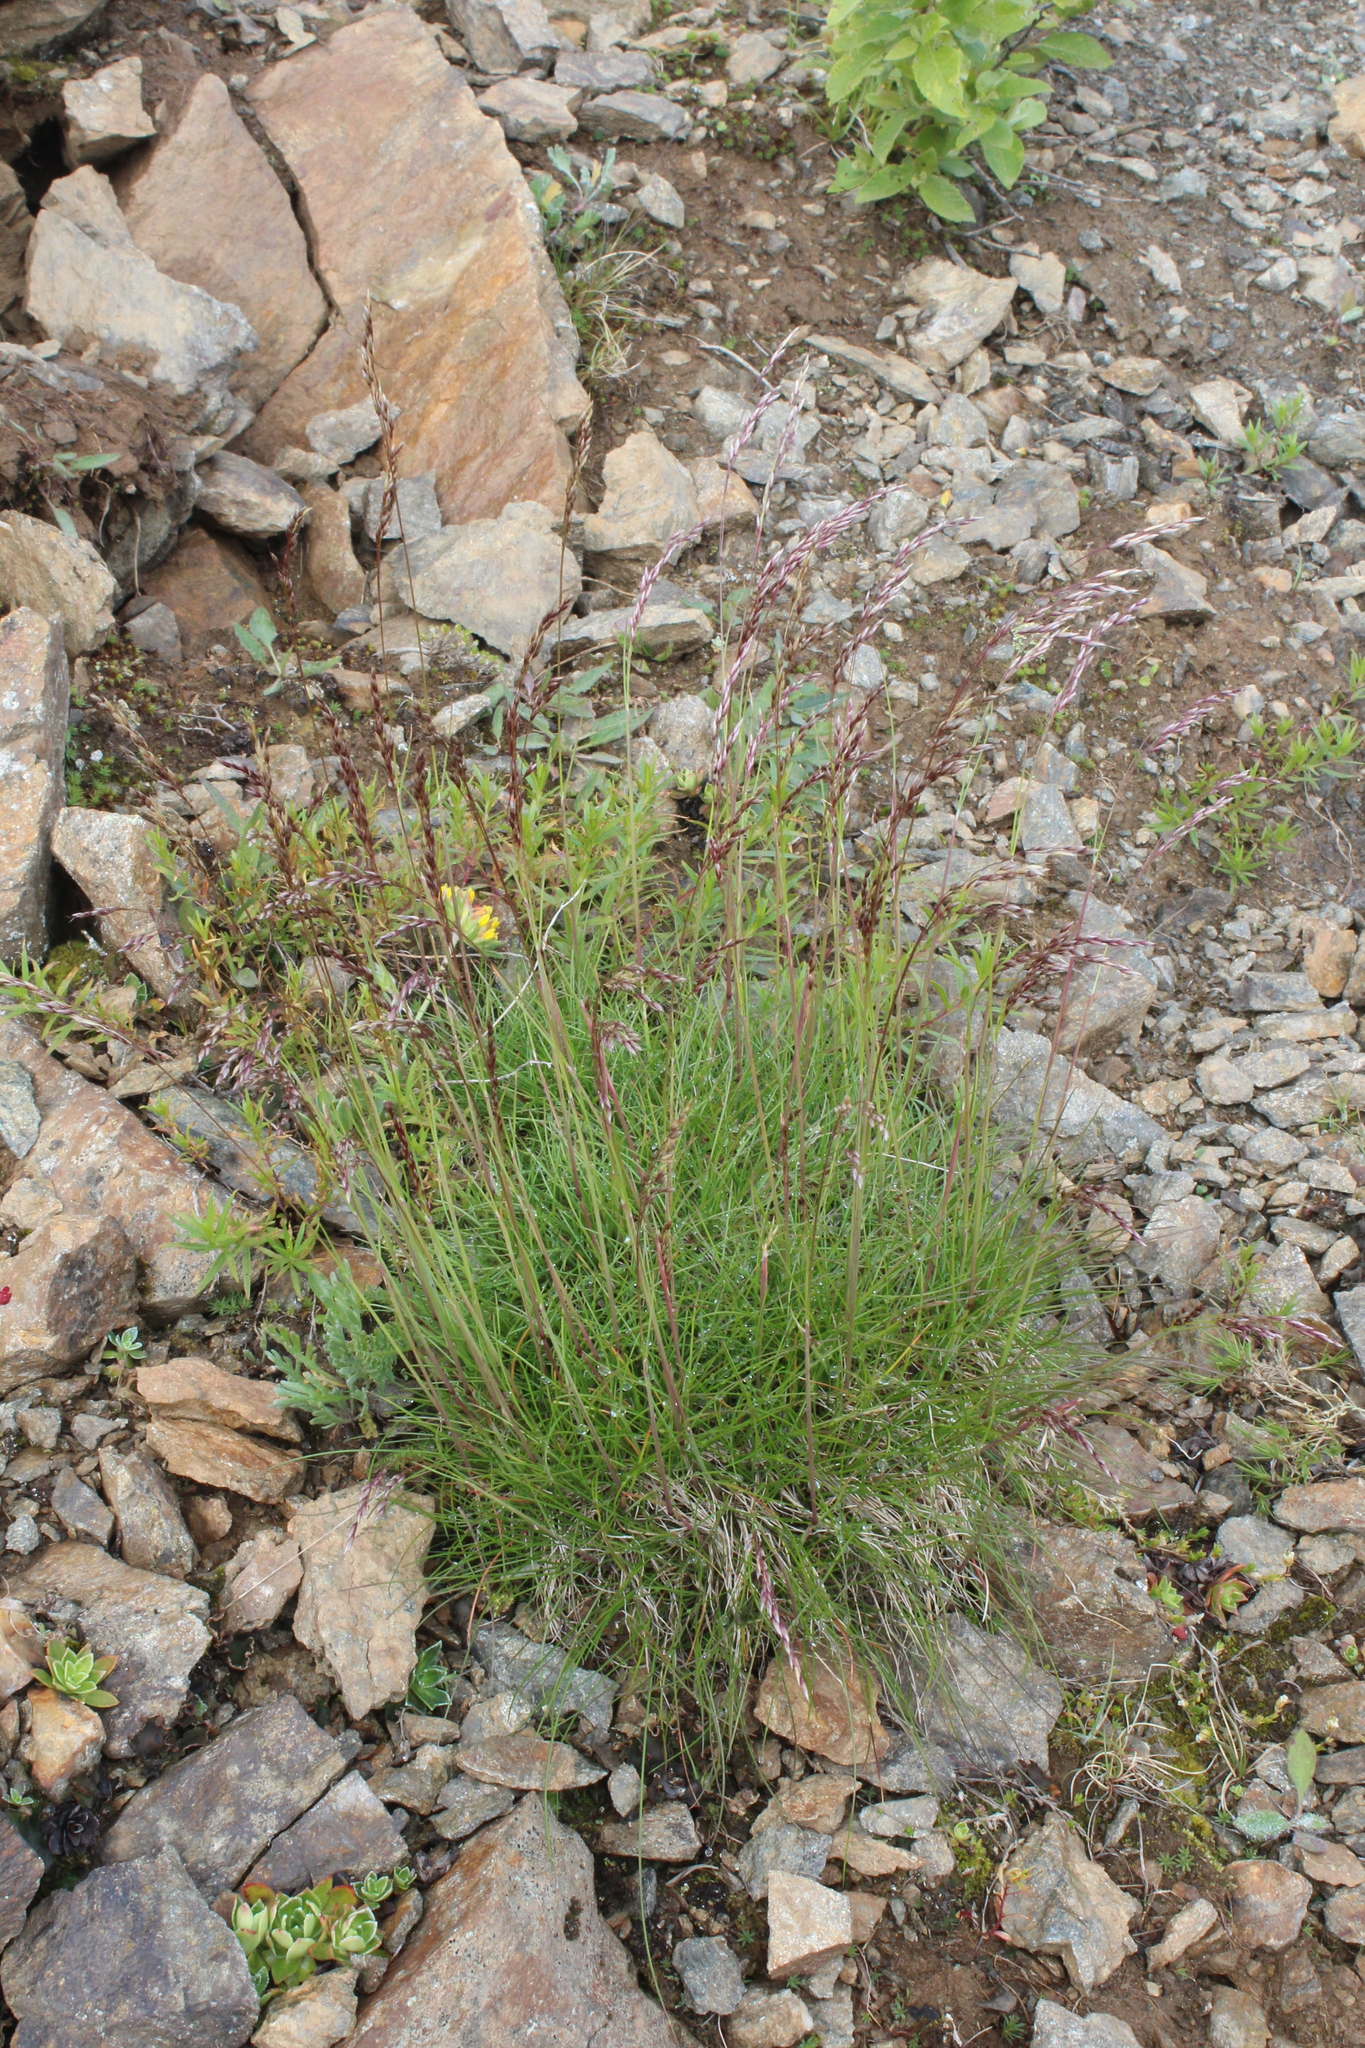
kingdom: Plantae
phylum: Tracheophyta
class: Liliopsida
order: Poales
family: Poaceae
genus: Avenella
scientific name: Avenella flexuosa
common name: Wavy hairgrass
